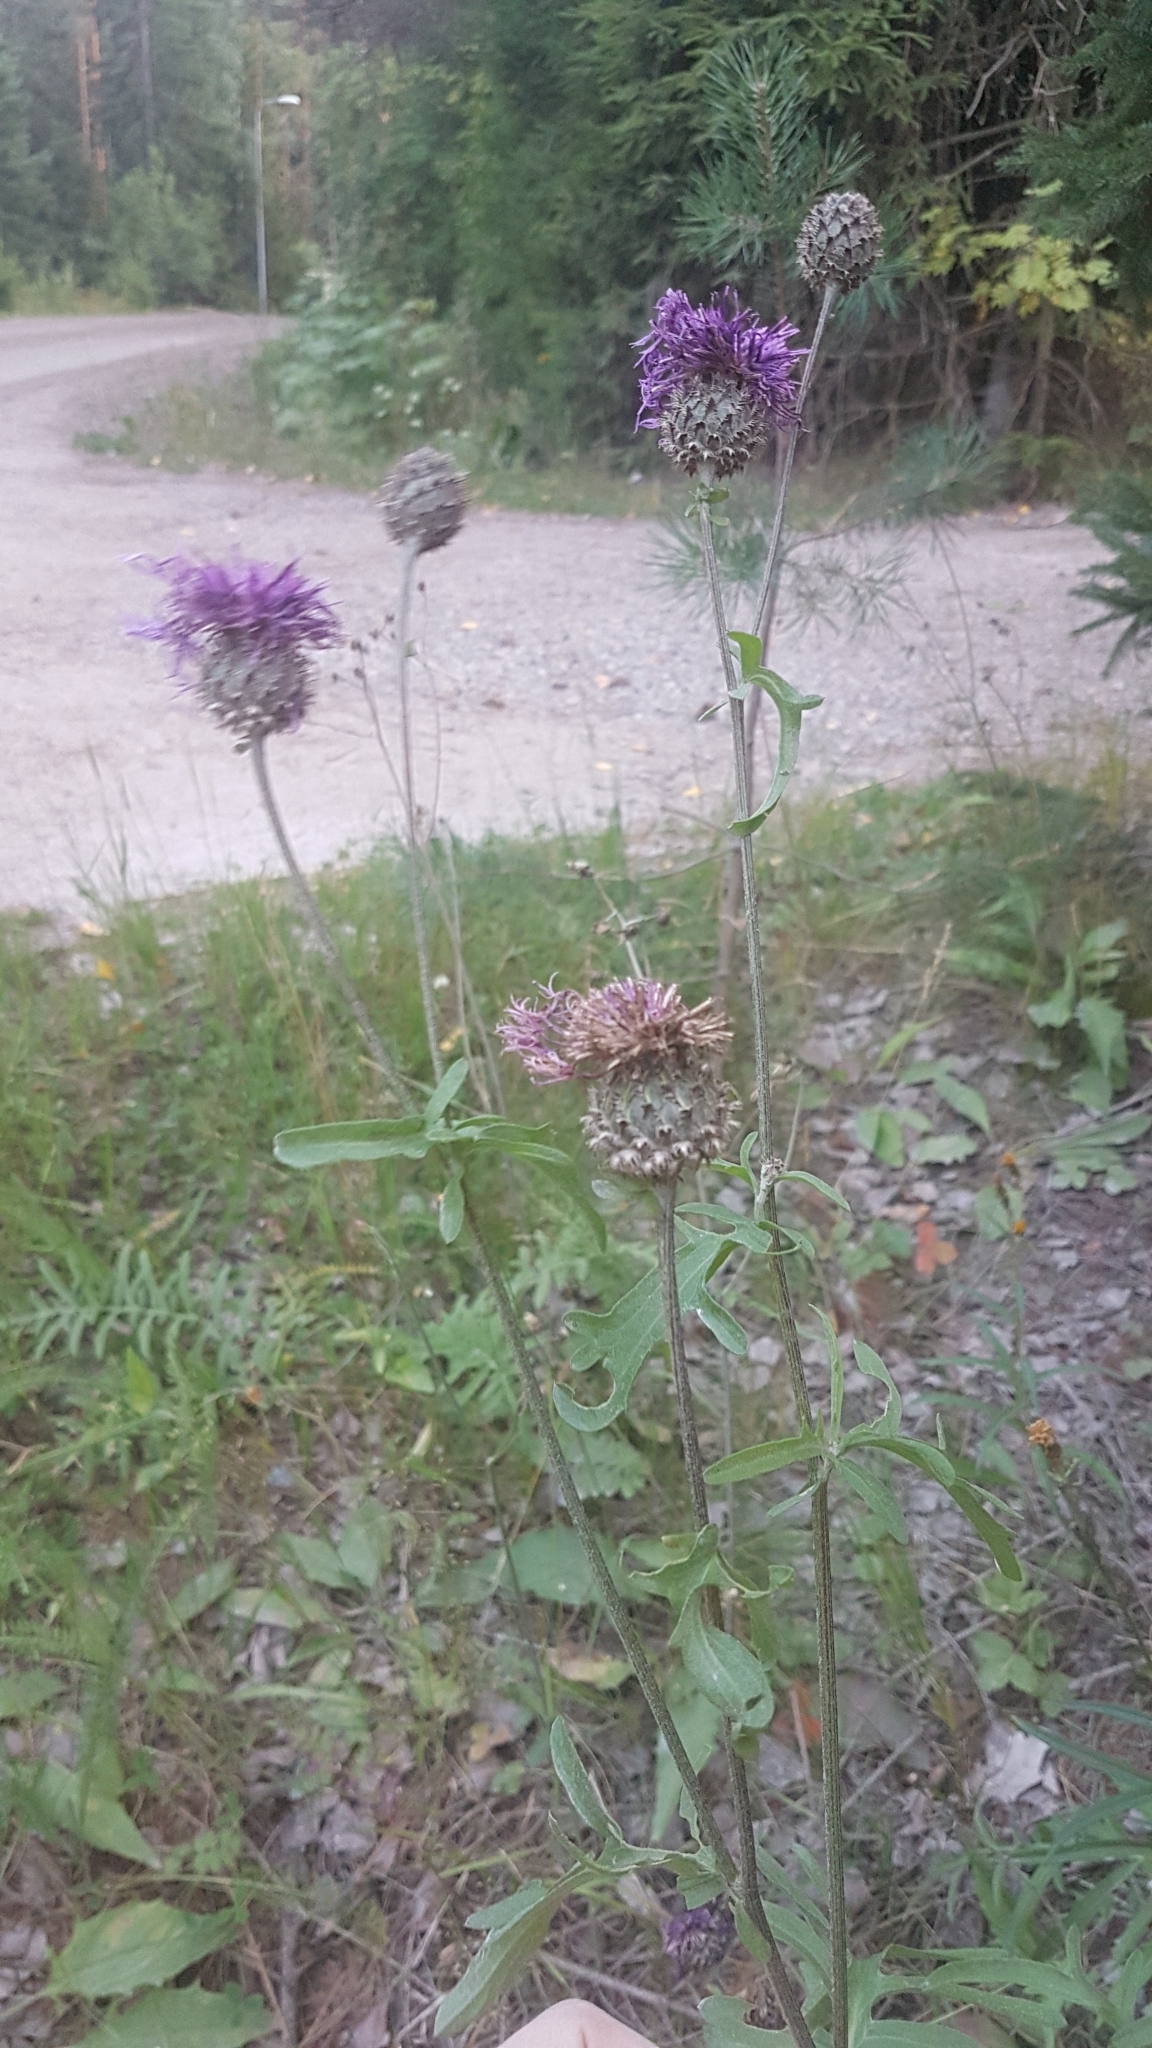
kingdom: Plantae
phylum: Tracheophyta
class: Magnoliopsida
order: Asterales
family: Asteraceae
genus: Centaurea
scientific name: Centaurea scabiosa
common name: Greater knapweed
